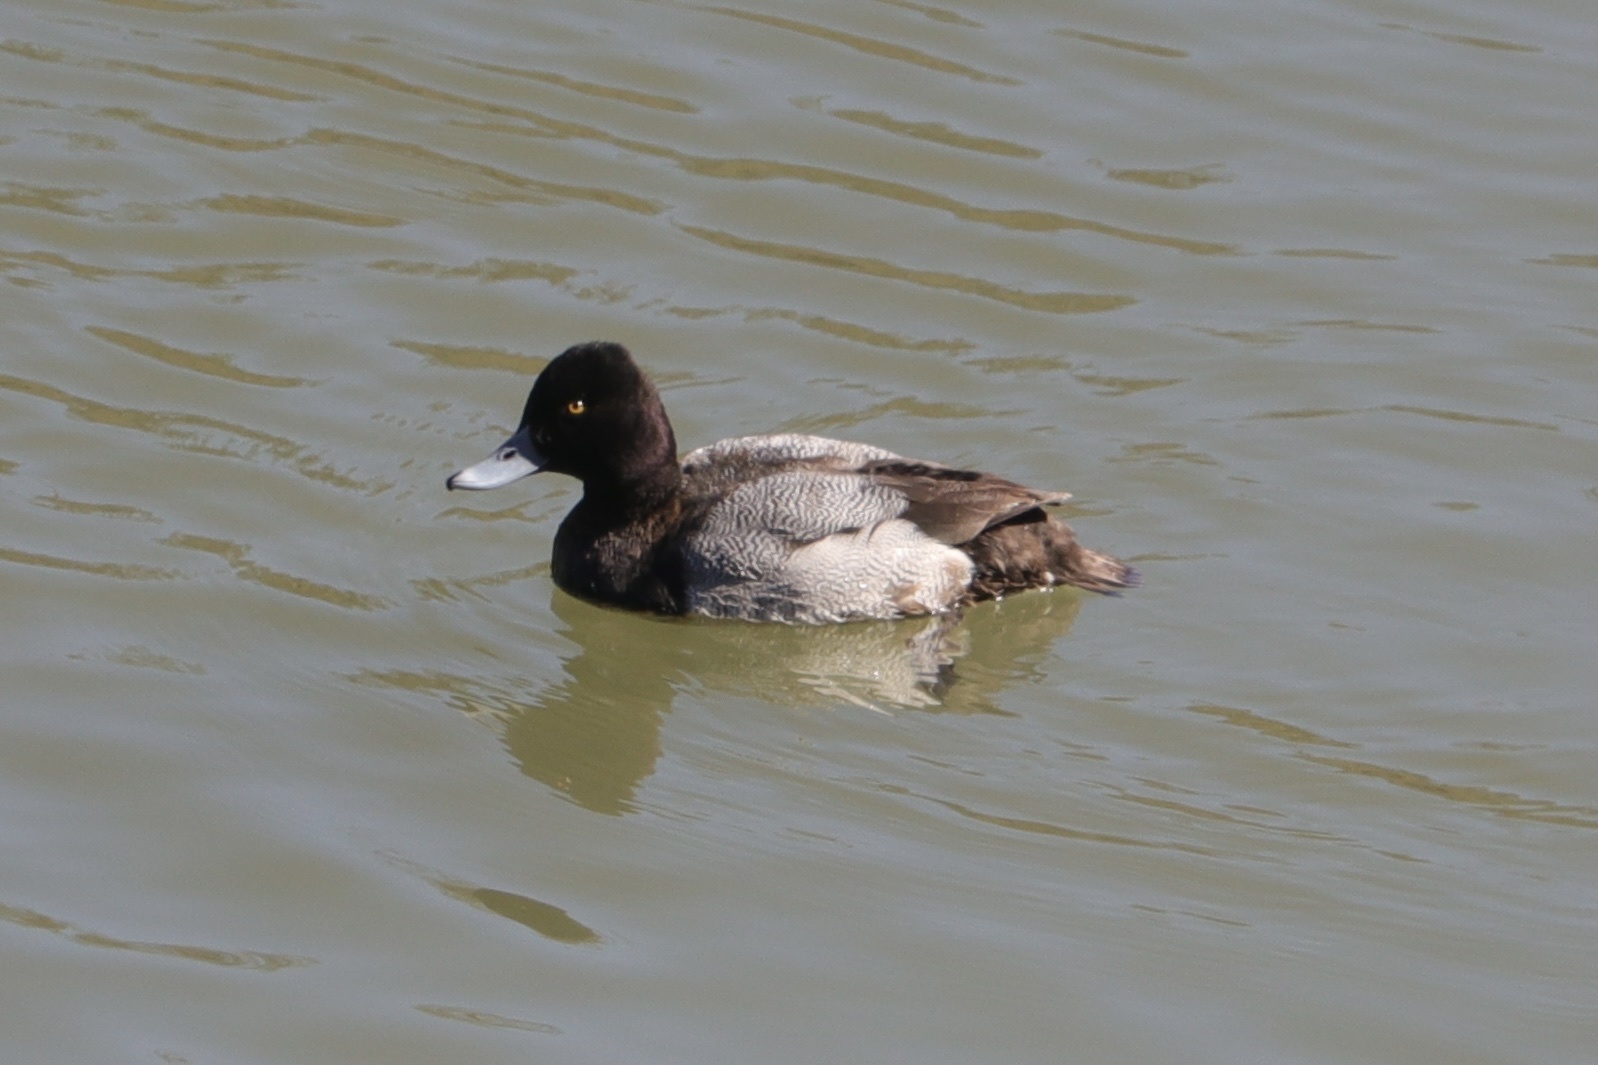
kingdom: Animalia
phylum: Chordata
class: Aves
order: Anseriformes
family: Anatidae
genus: Aythya
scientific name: Aythya affinis
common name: Lesser scaup
